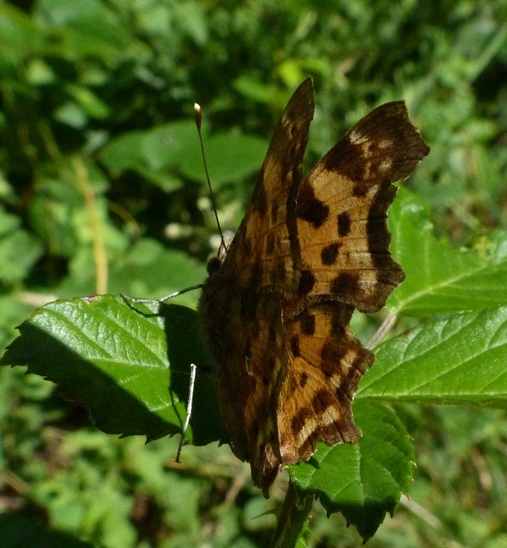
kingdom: Animalia
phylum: Arthropoda
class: Insecta
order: Lepidoptera
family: Nymphalidae
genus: Polygonia
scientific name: Polygonia c-album
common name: Comma
